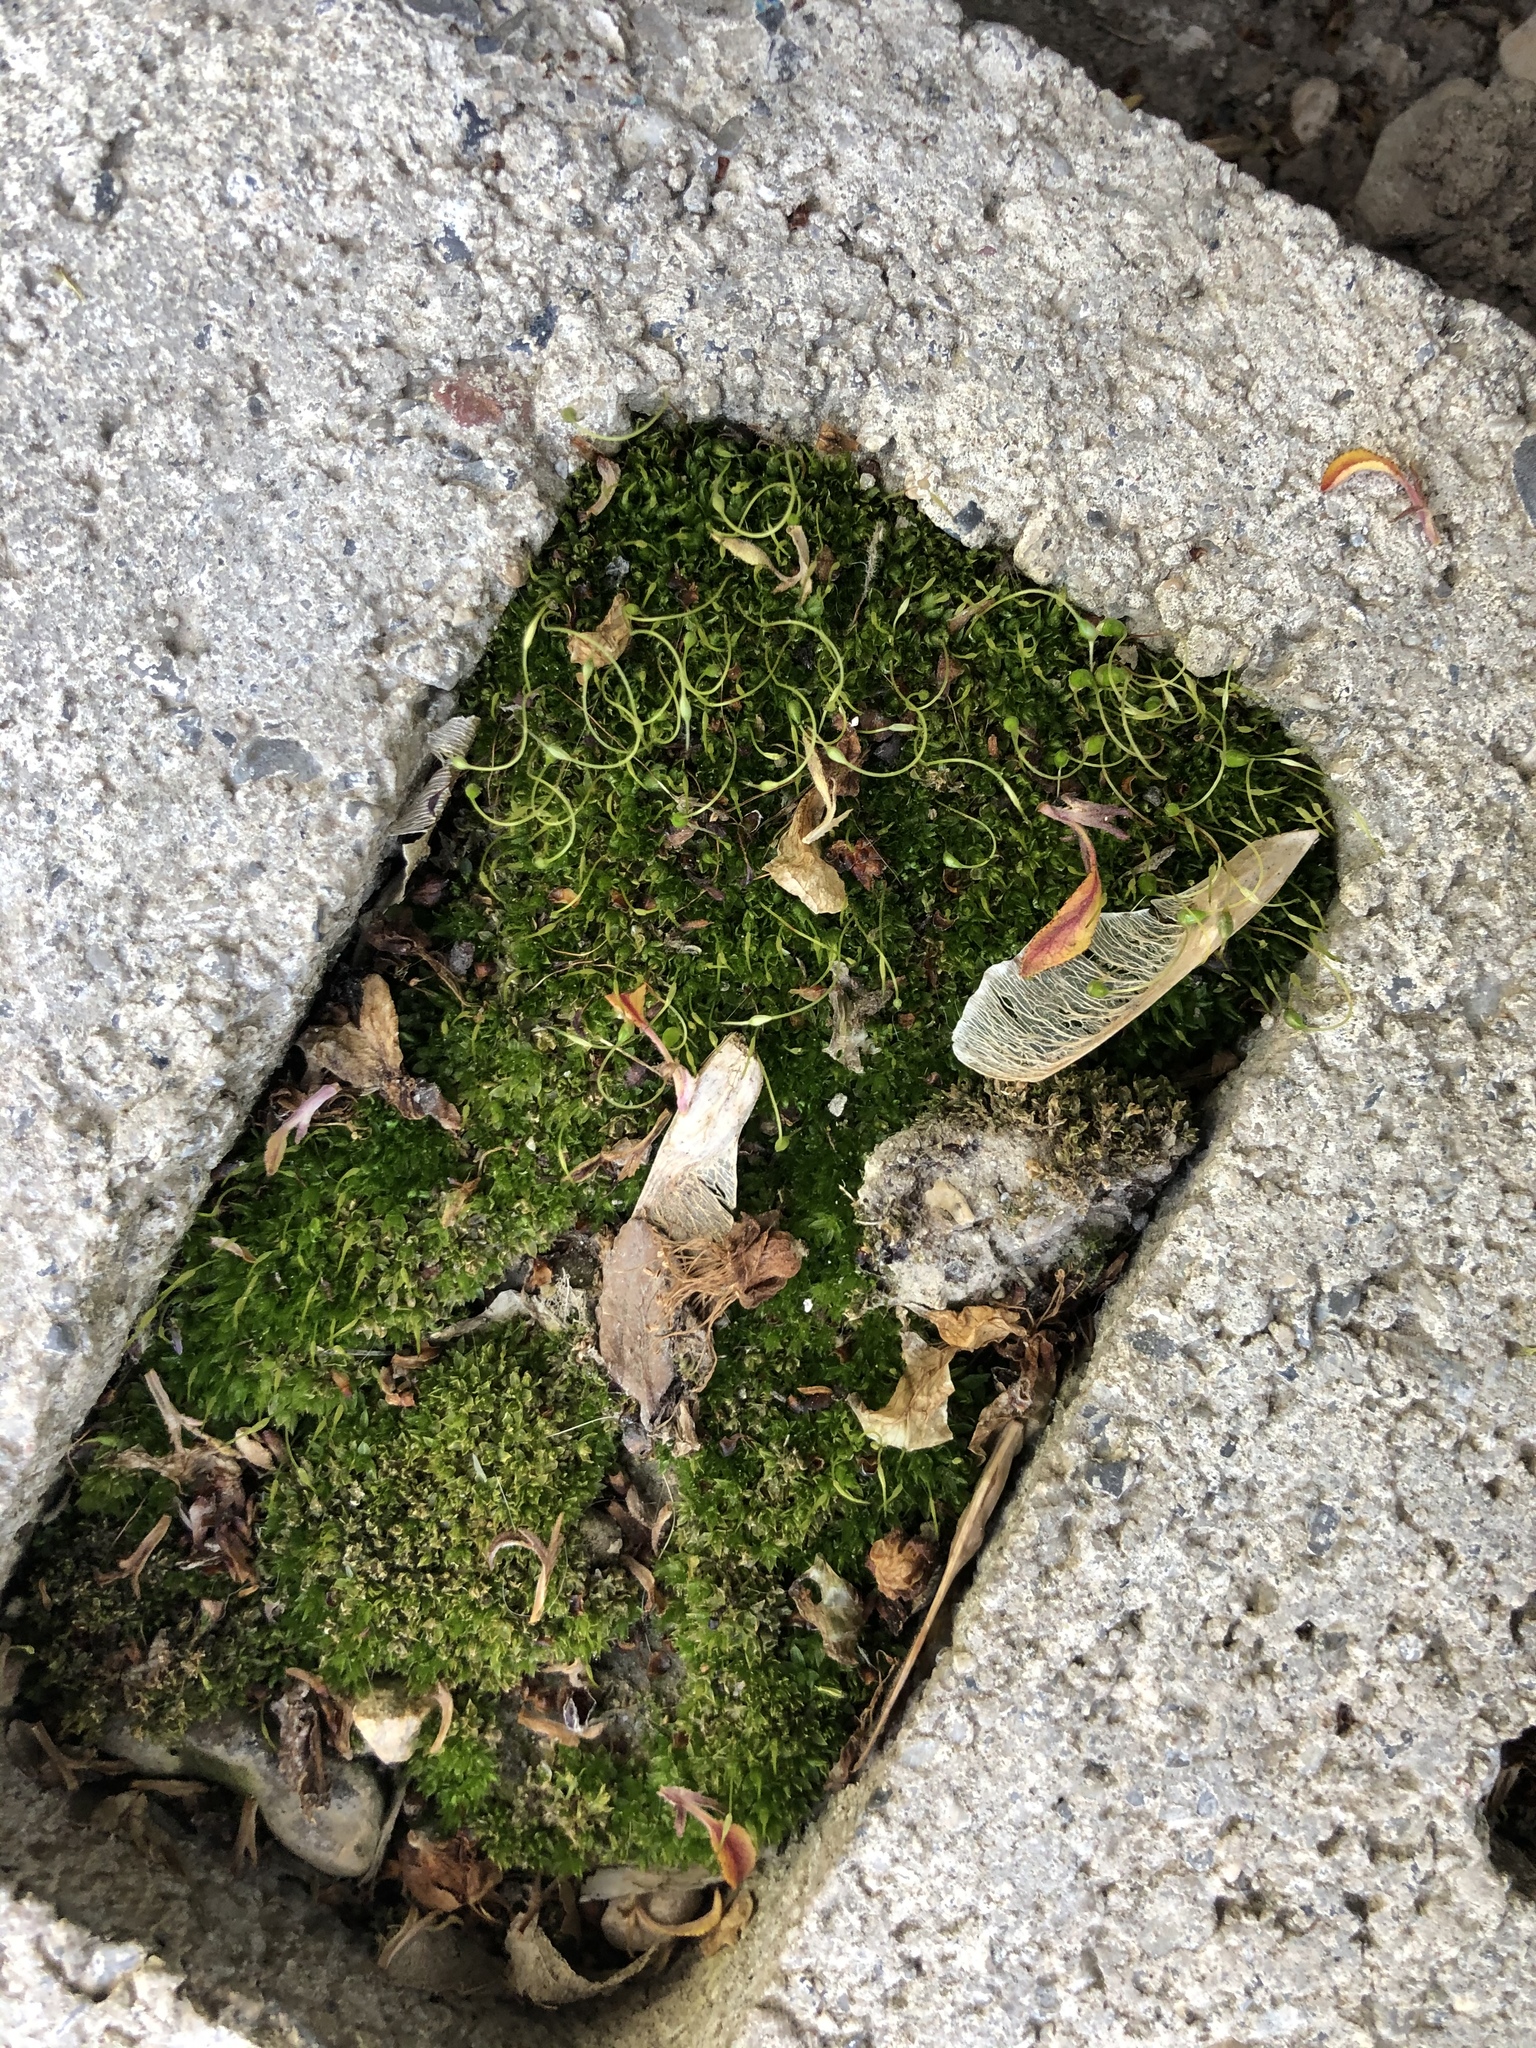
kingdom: Plantae
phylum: Bryophyta
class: Bryopsida
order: Funariales
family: Funariaceae
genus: Funaria
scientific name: Funaria hygrometrica
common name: Common cord moss
